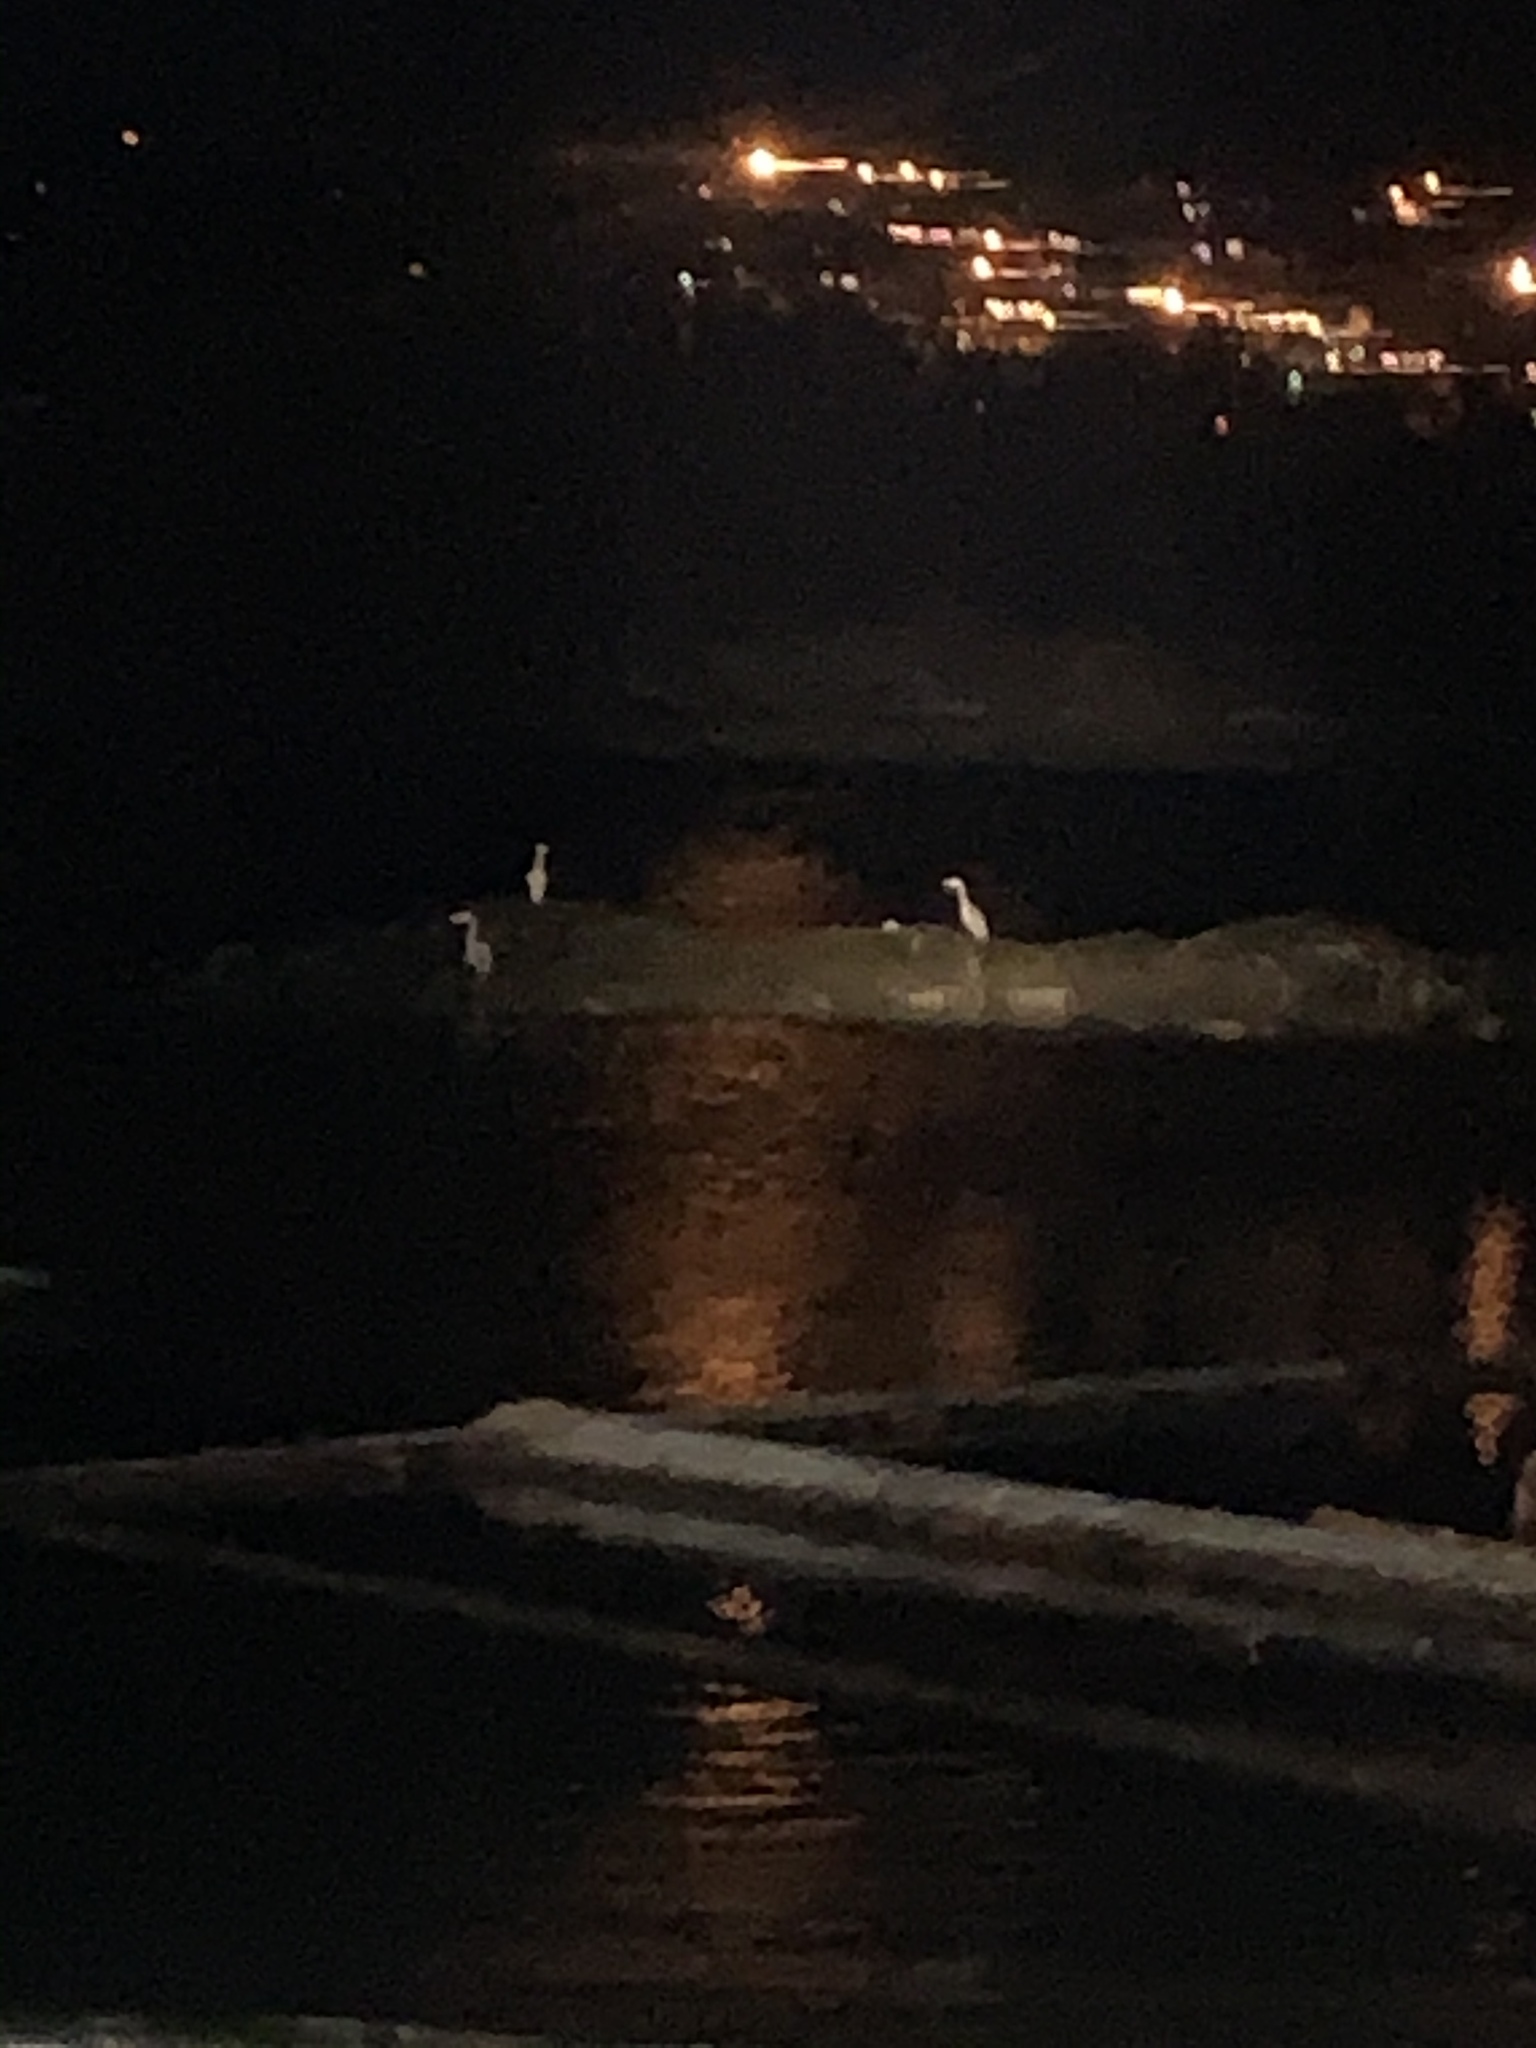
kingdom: Animalia
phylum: Chordata
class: Aves
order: Pelecaniformes
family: Ardeidae
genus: Ardea
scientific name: Ardea herodias
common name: Great blue heron
